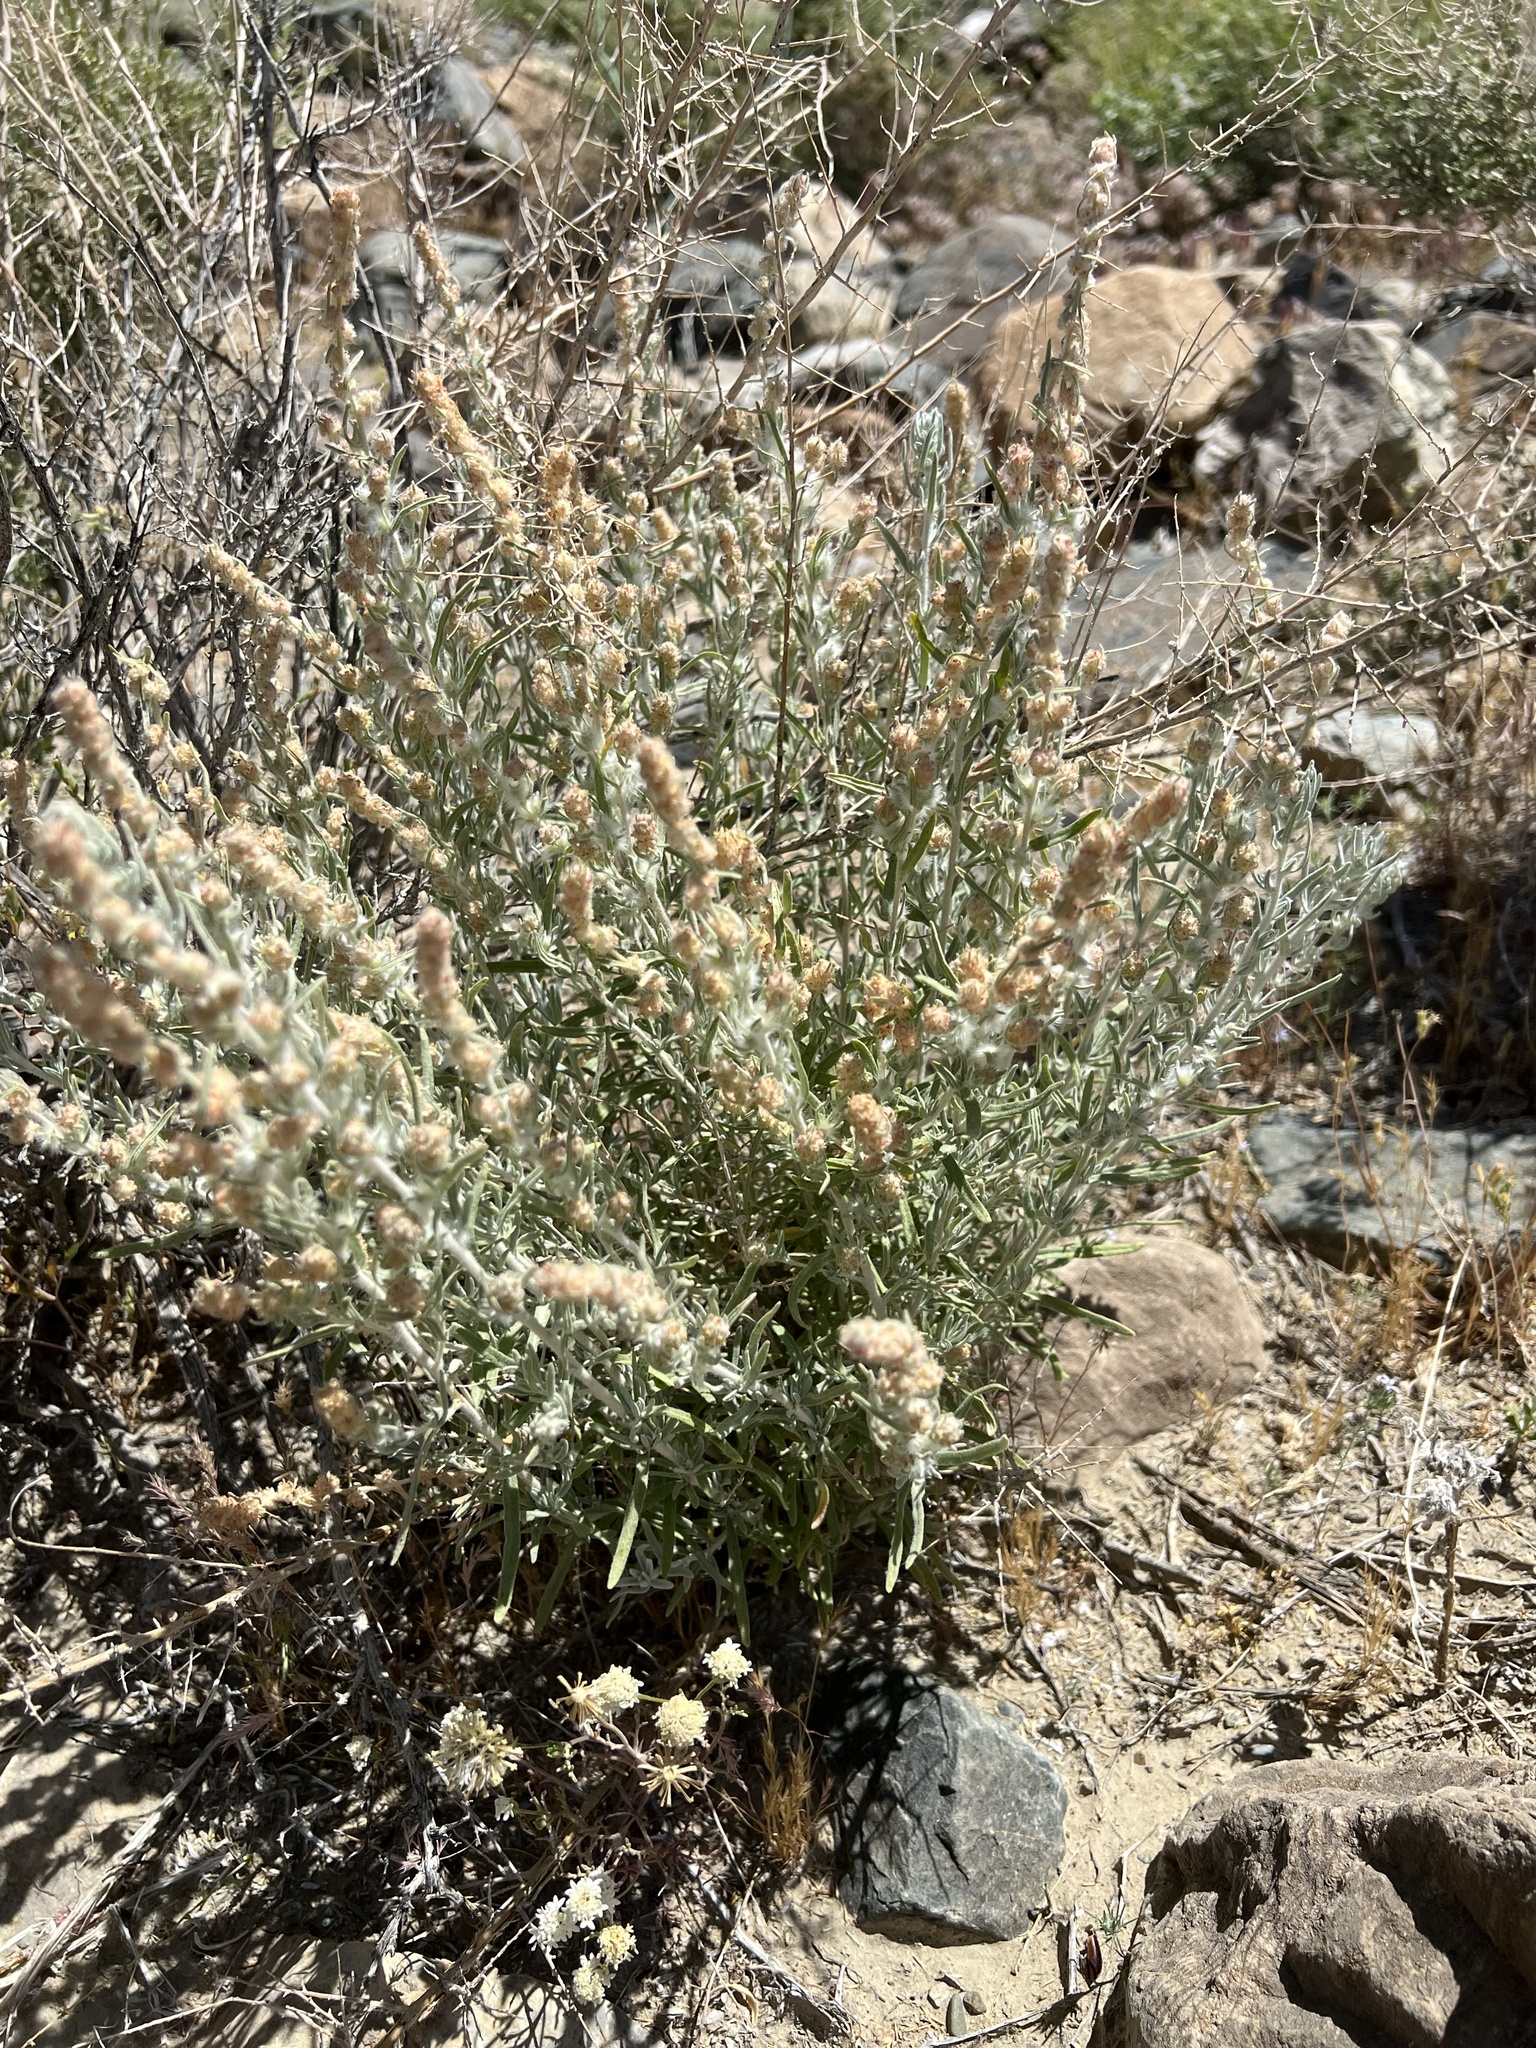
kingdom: Plantae
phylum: Tracheophyta
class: Magnoliopsida
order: Caryophyllales
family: Amaranthaceae
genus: Krascheninnikovia
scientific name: Krascheninnikovia lanata
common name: Winterfat
